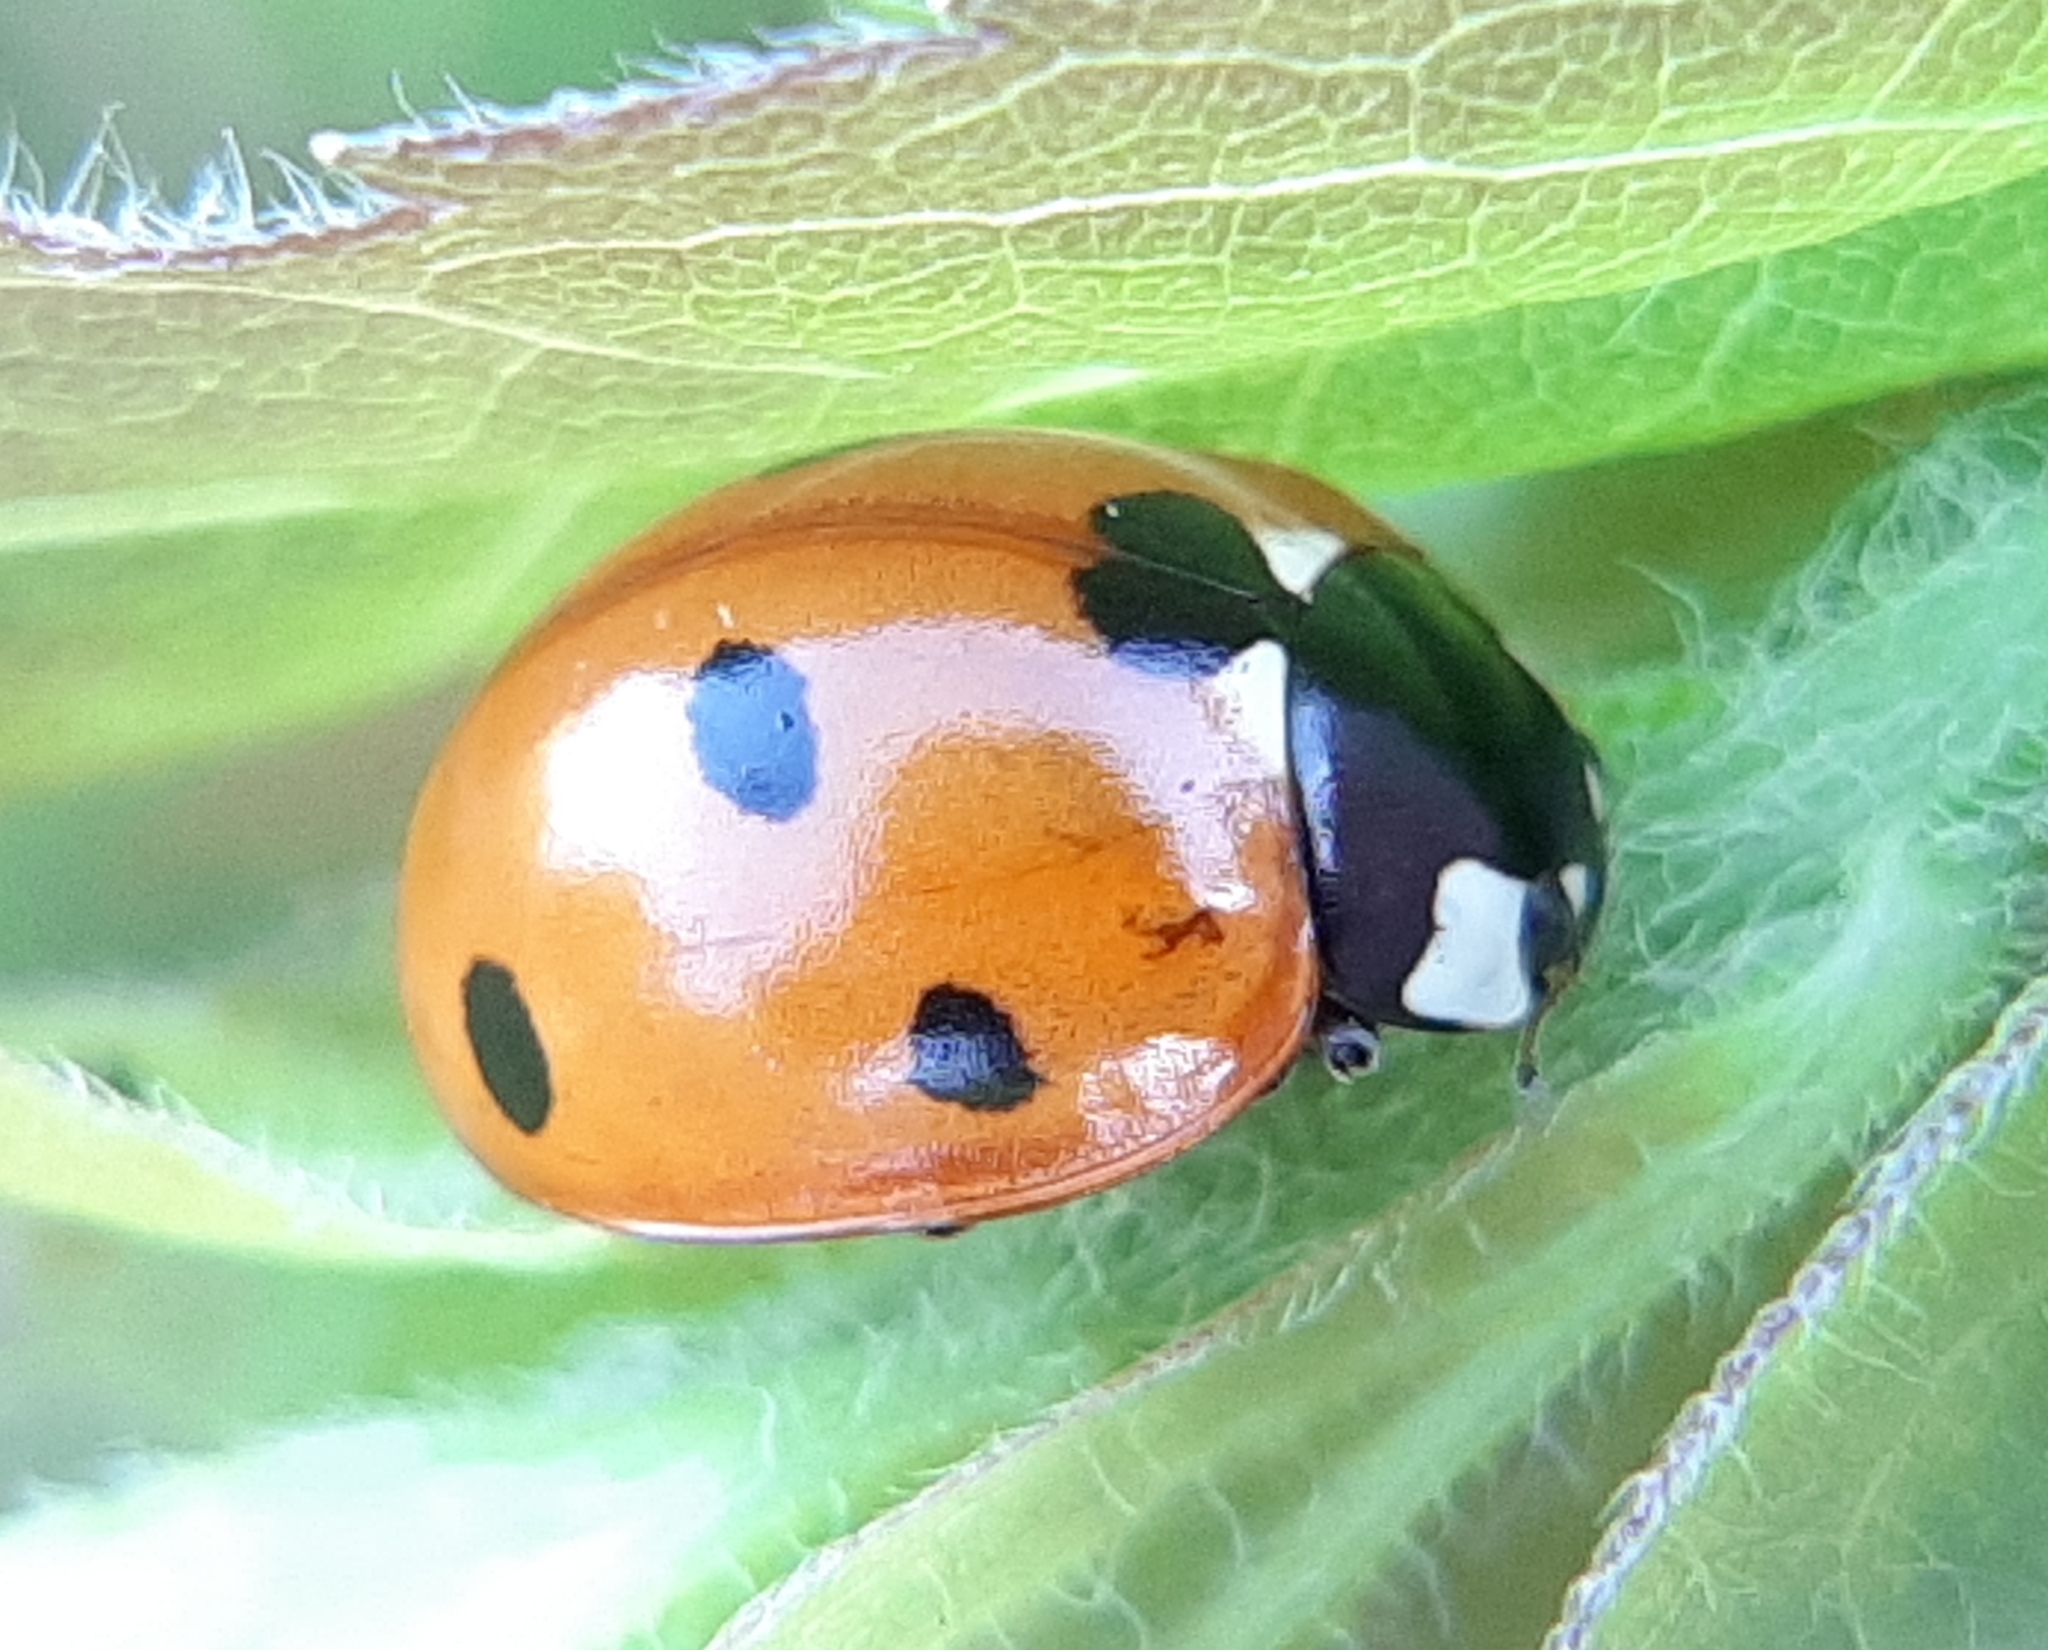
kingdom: Animalia
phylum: Arthropoda
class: Insecta
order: Coleoptera
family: Coccinellidae
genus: Coccinella
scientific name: Coccinella septempunctata
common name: Sevenspotted lady beetle
